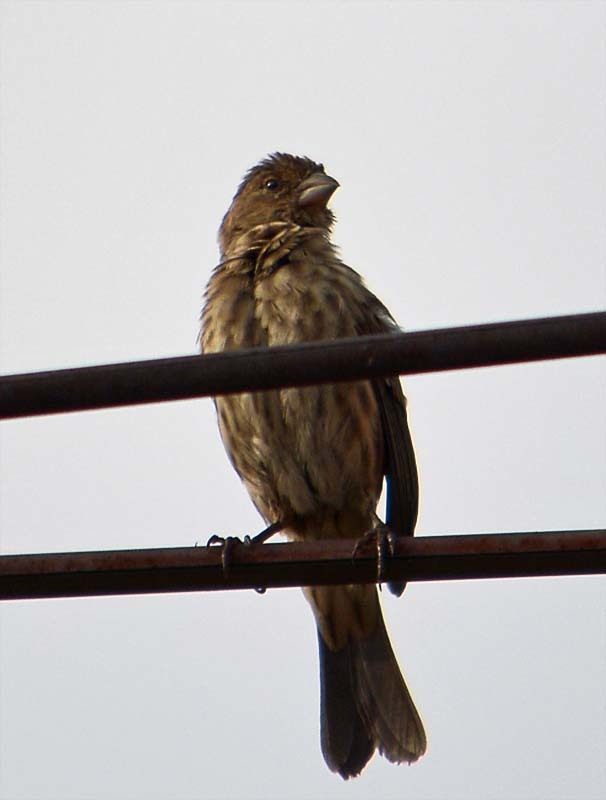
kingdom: Animalia
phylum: Chordata
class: Aves
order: Passeriformes
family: Fringillidae
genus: Haemorhous
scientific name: Haemorhous mexicanus
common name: House finch
